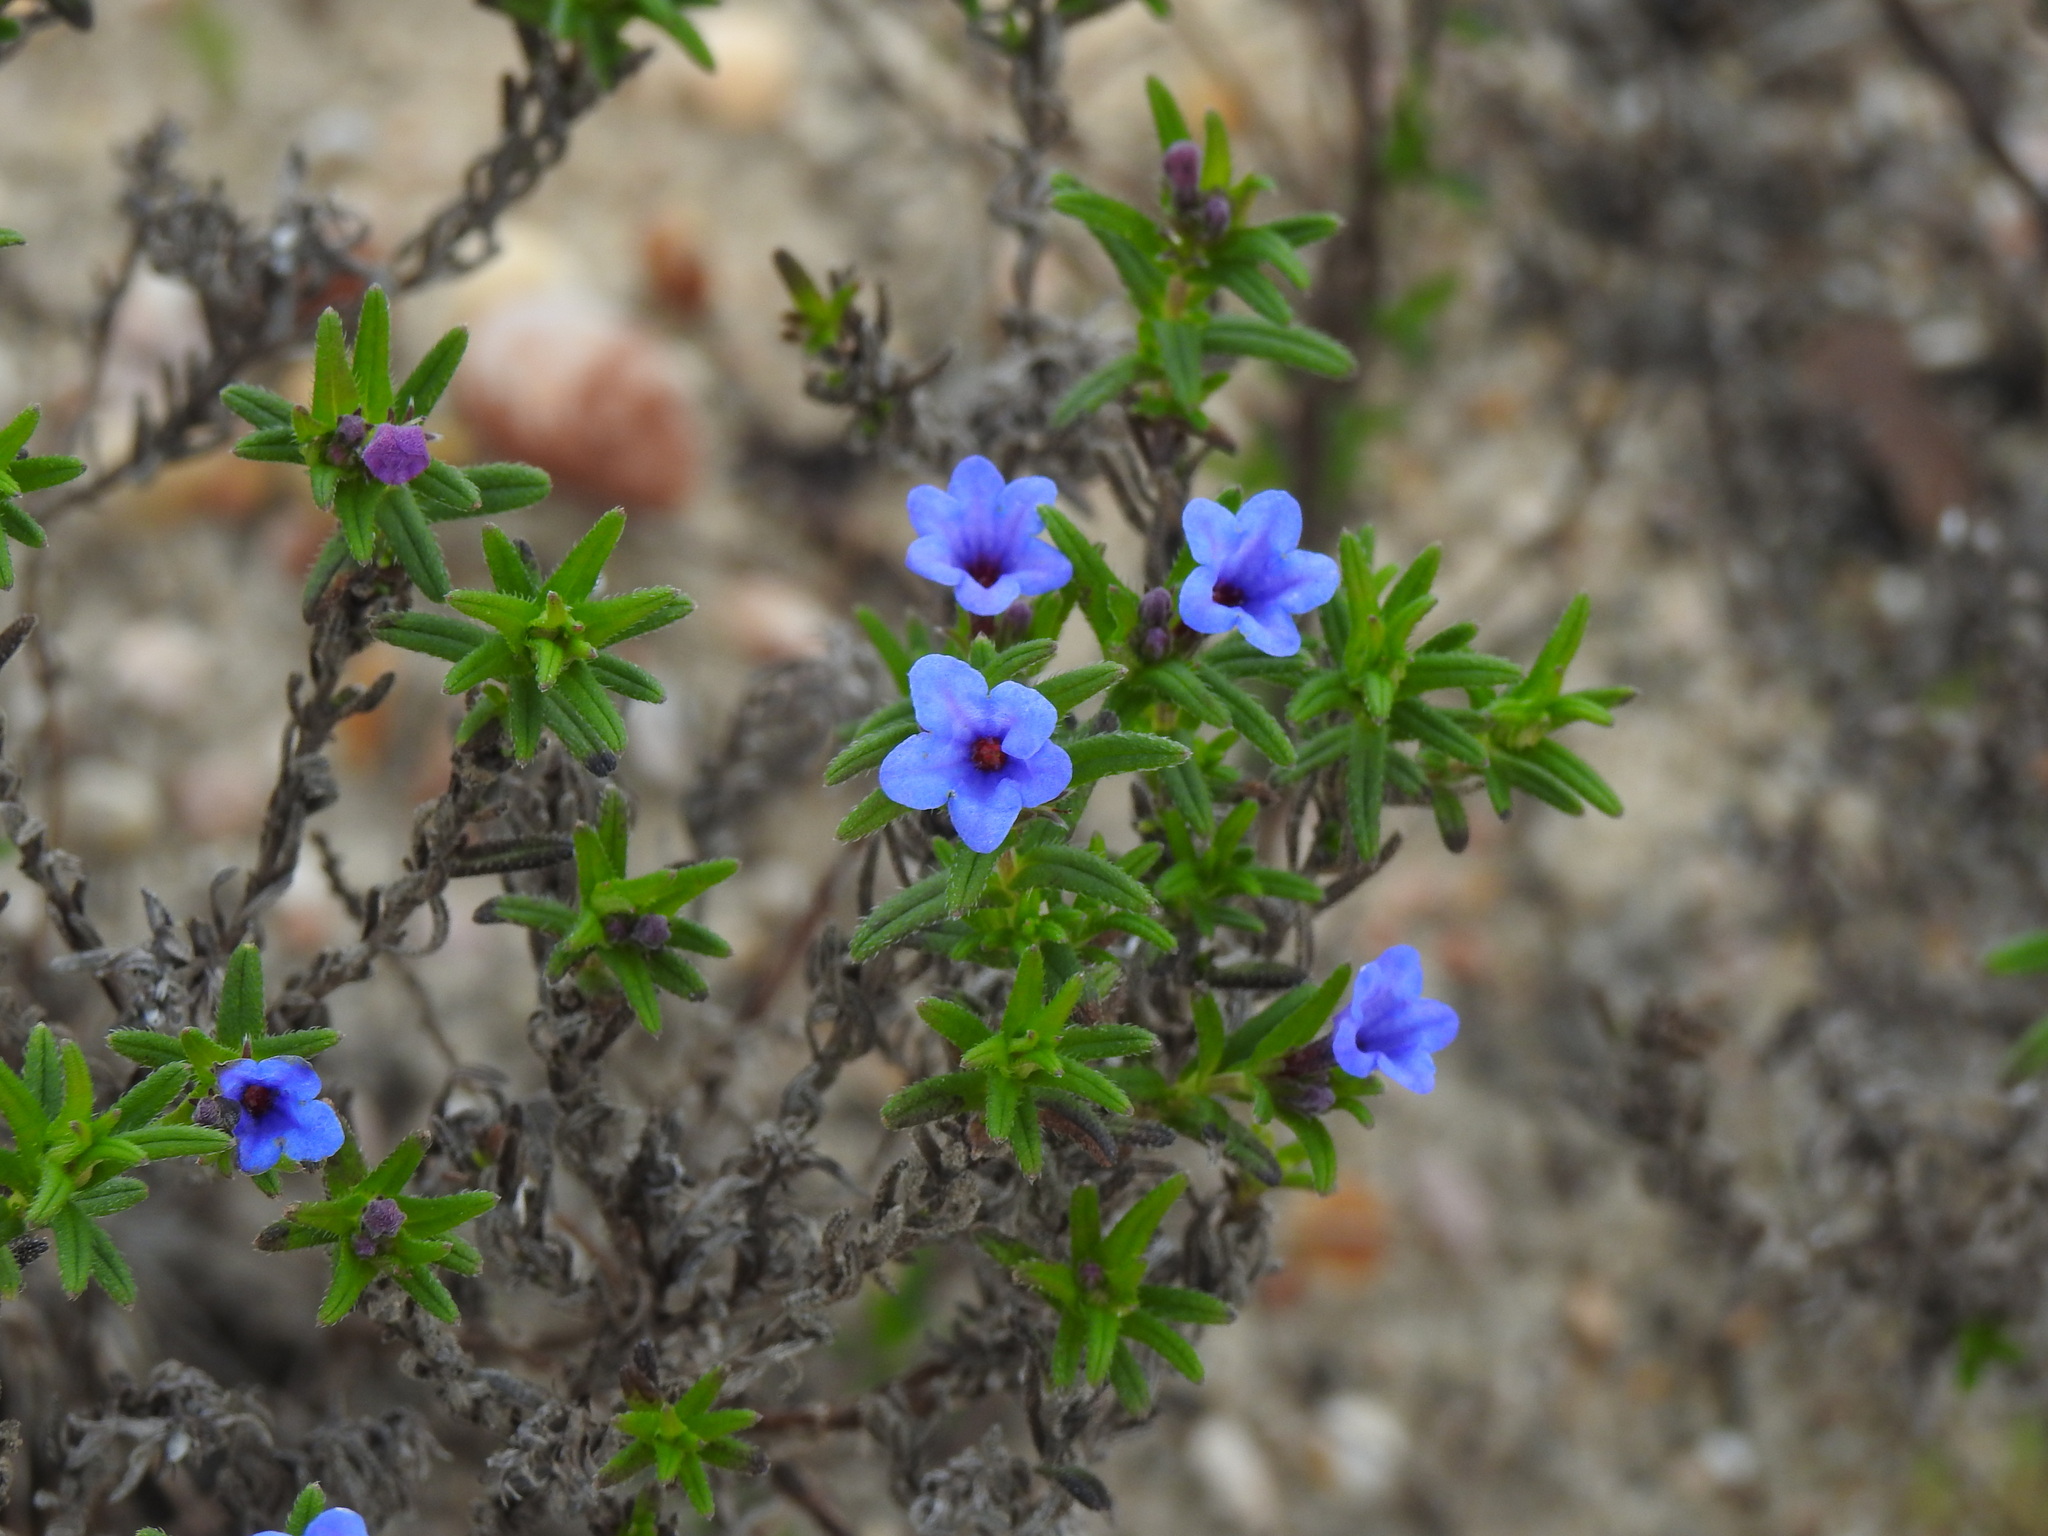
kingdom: Plantae
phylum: Tracheophyta
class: Magnoliopsida
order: Boraginales
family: Boraginaceae
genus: Glandora
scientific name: Glandora prostrata
